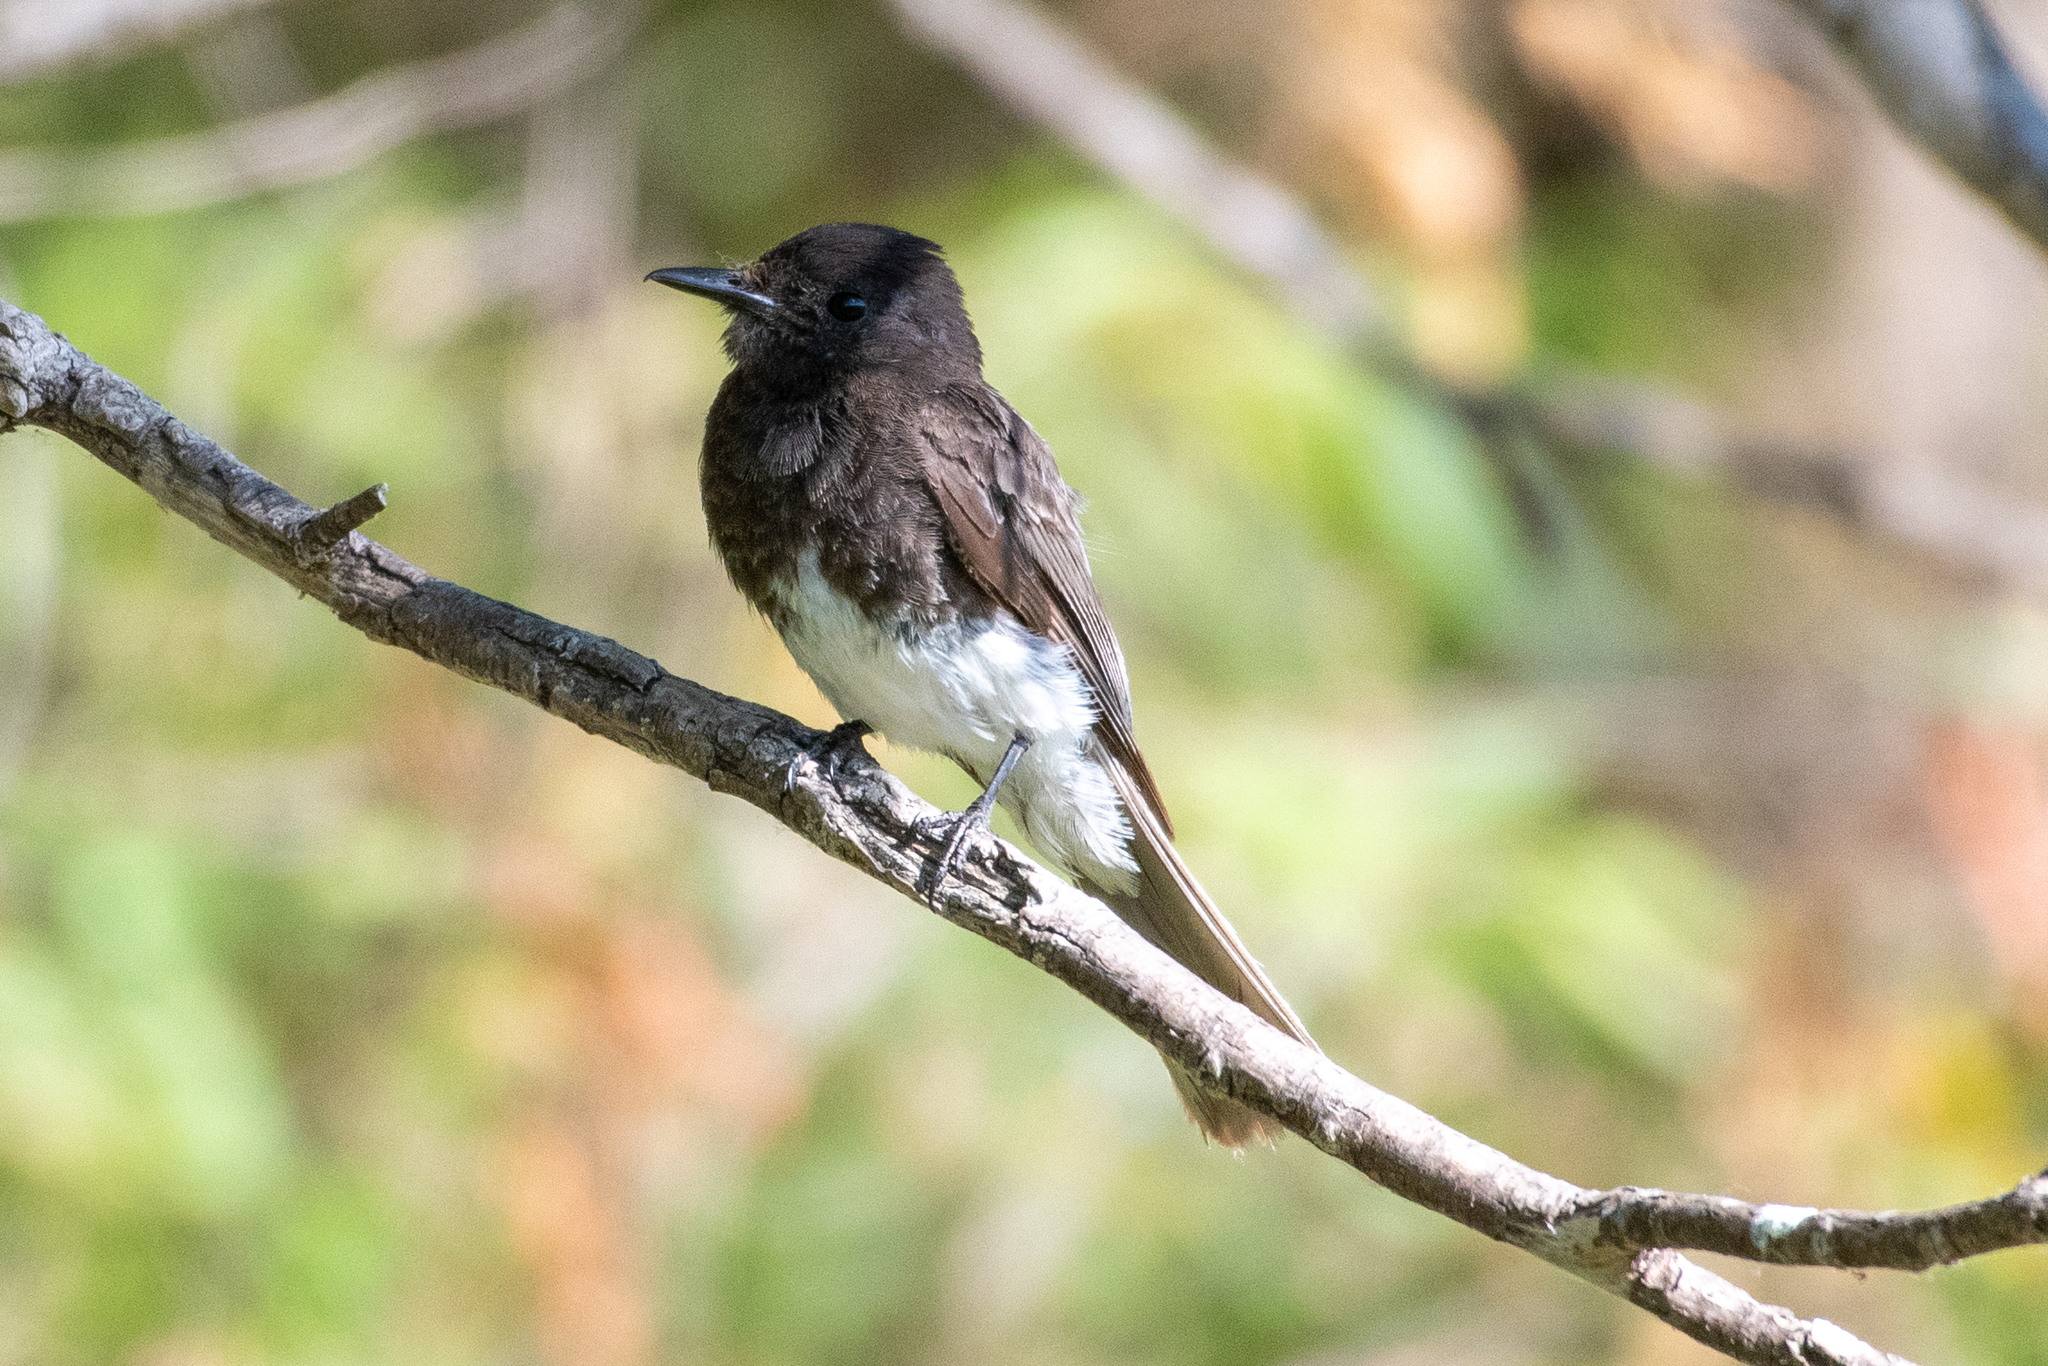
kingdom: Animalia
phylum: Chordata
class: Aves
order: Passeriformes
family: Tyrannidae
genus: Sayornis
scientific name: Sayornis nigricans
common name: Black phoebe
